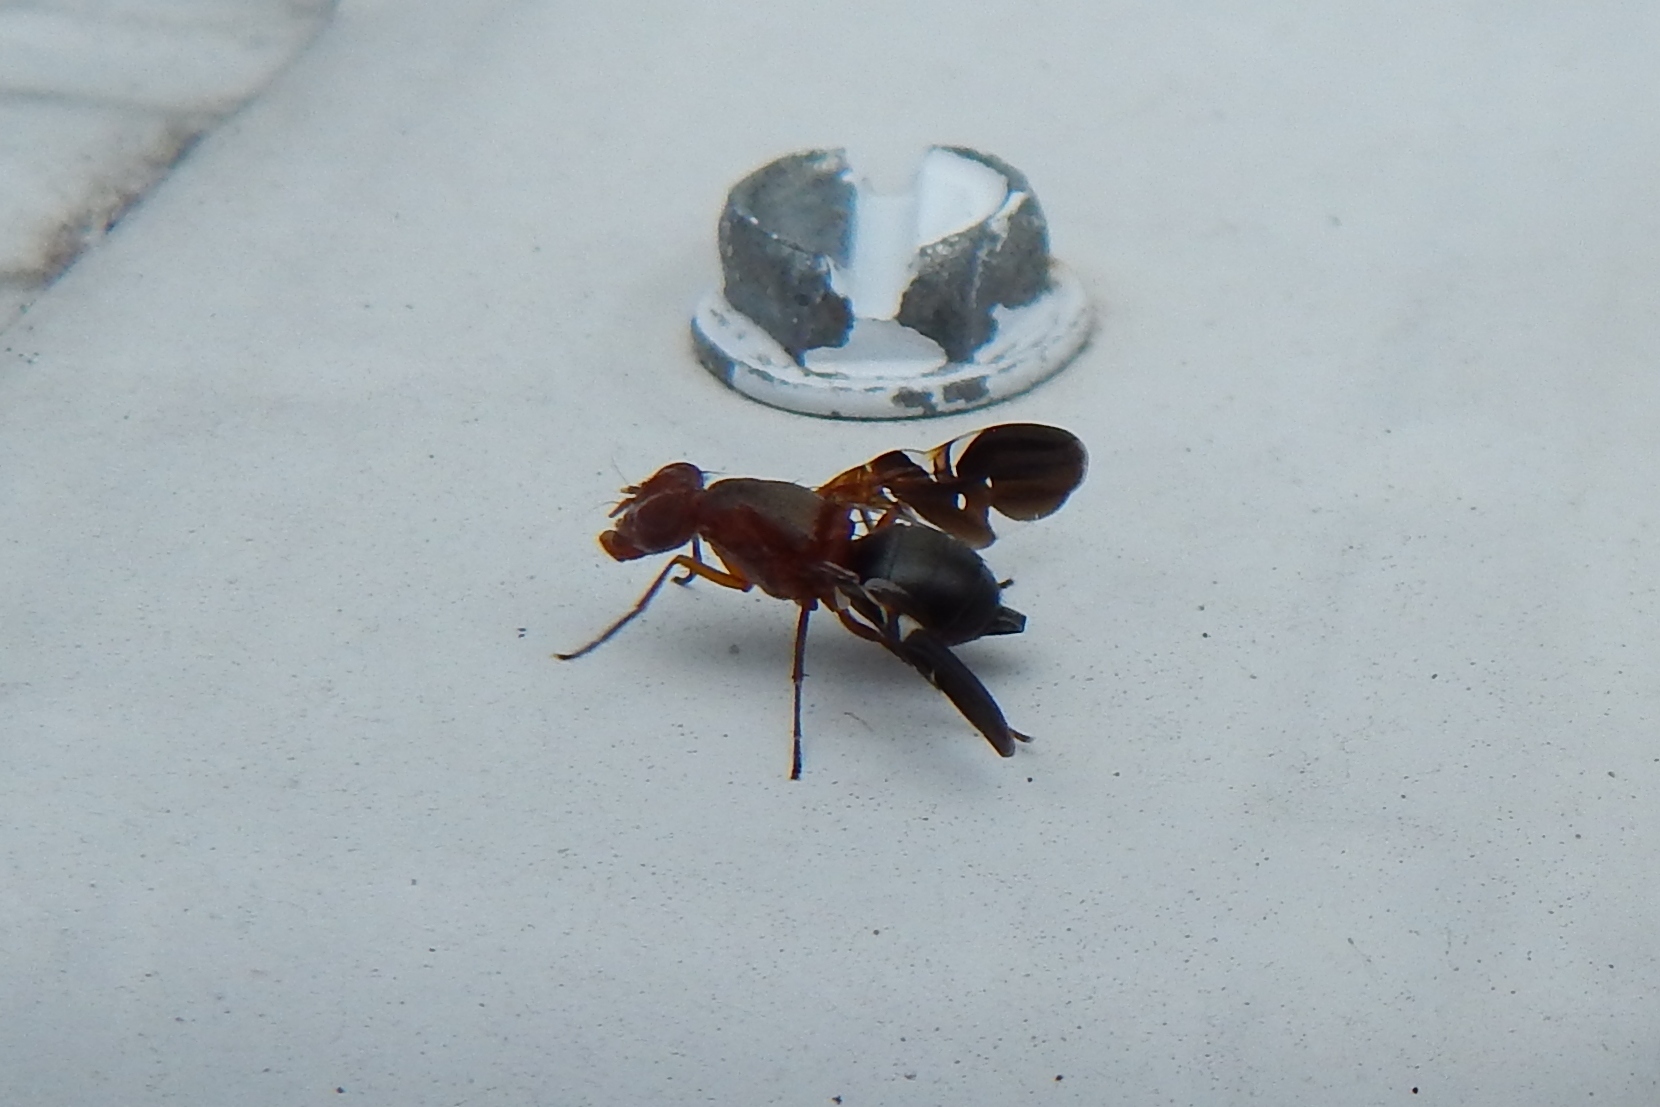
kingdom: Animalia
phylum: Arthropoda
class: Insecta
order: Diptera
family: Ulidiidae
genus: Delphinia
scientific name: Delphinia picta
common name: Common picture-winged fly
